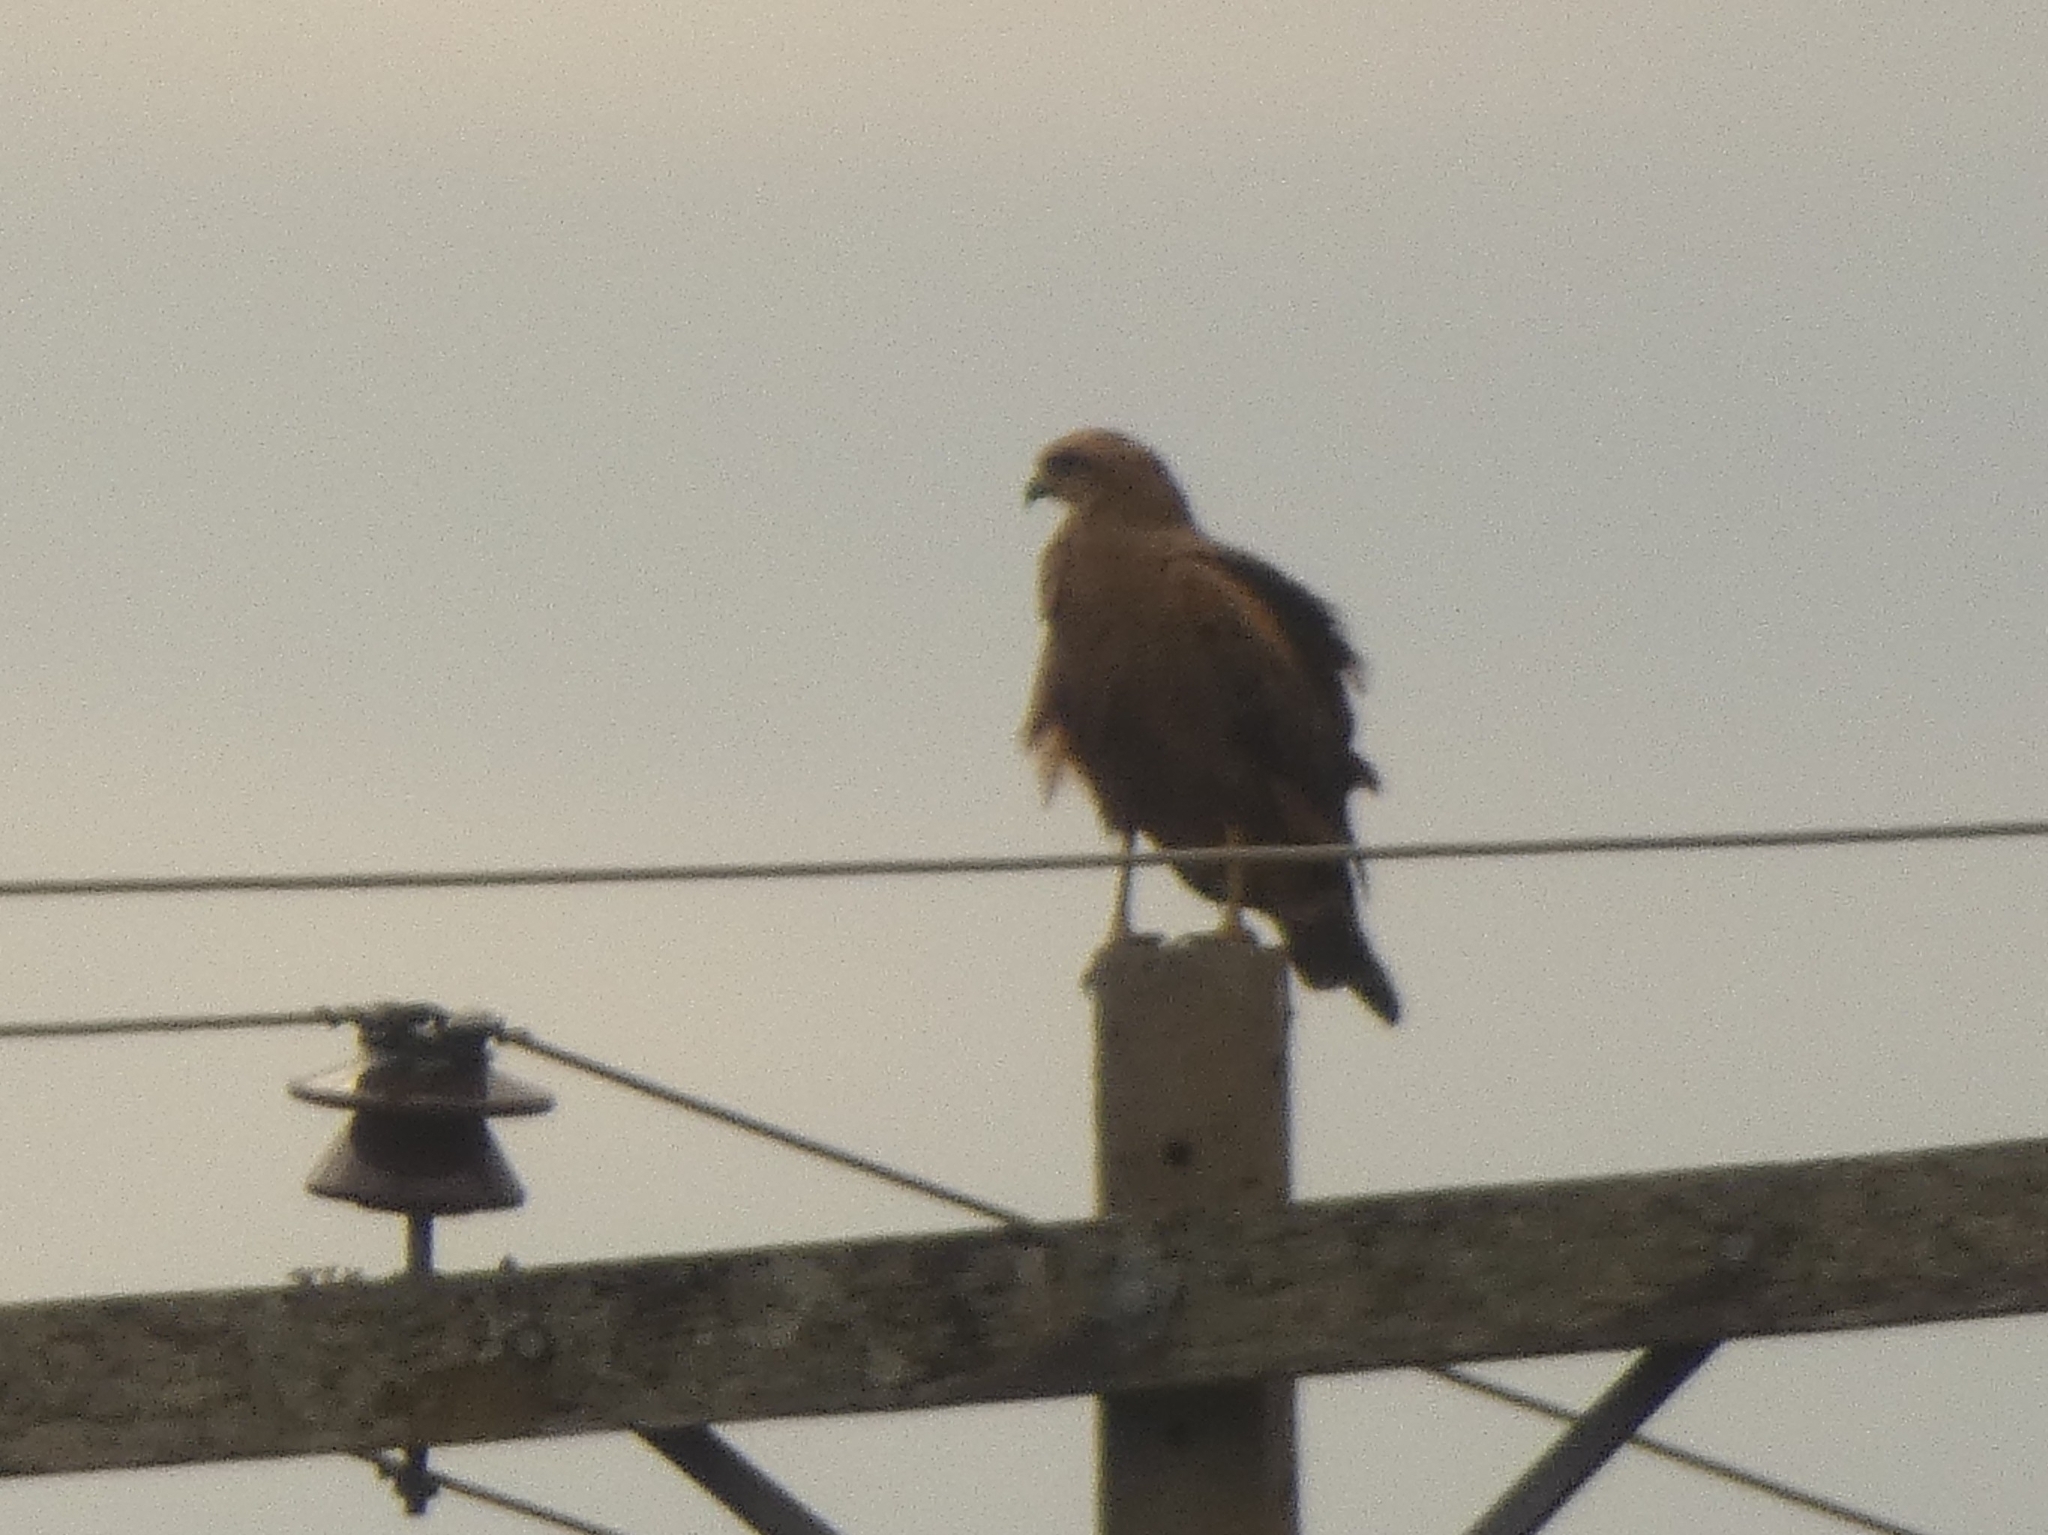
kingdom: Animalia
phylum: Chordata
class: Aves
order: Accipitriformes
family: Accipitridae
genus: Buteogallus
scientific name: Buteogallus meridionalis
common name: Savanna hawk
